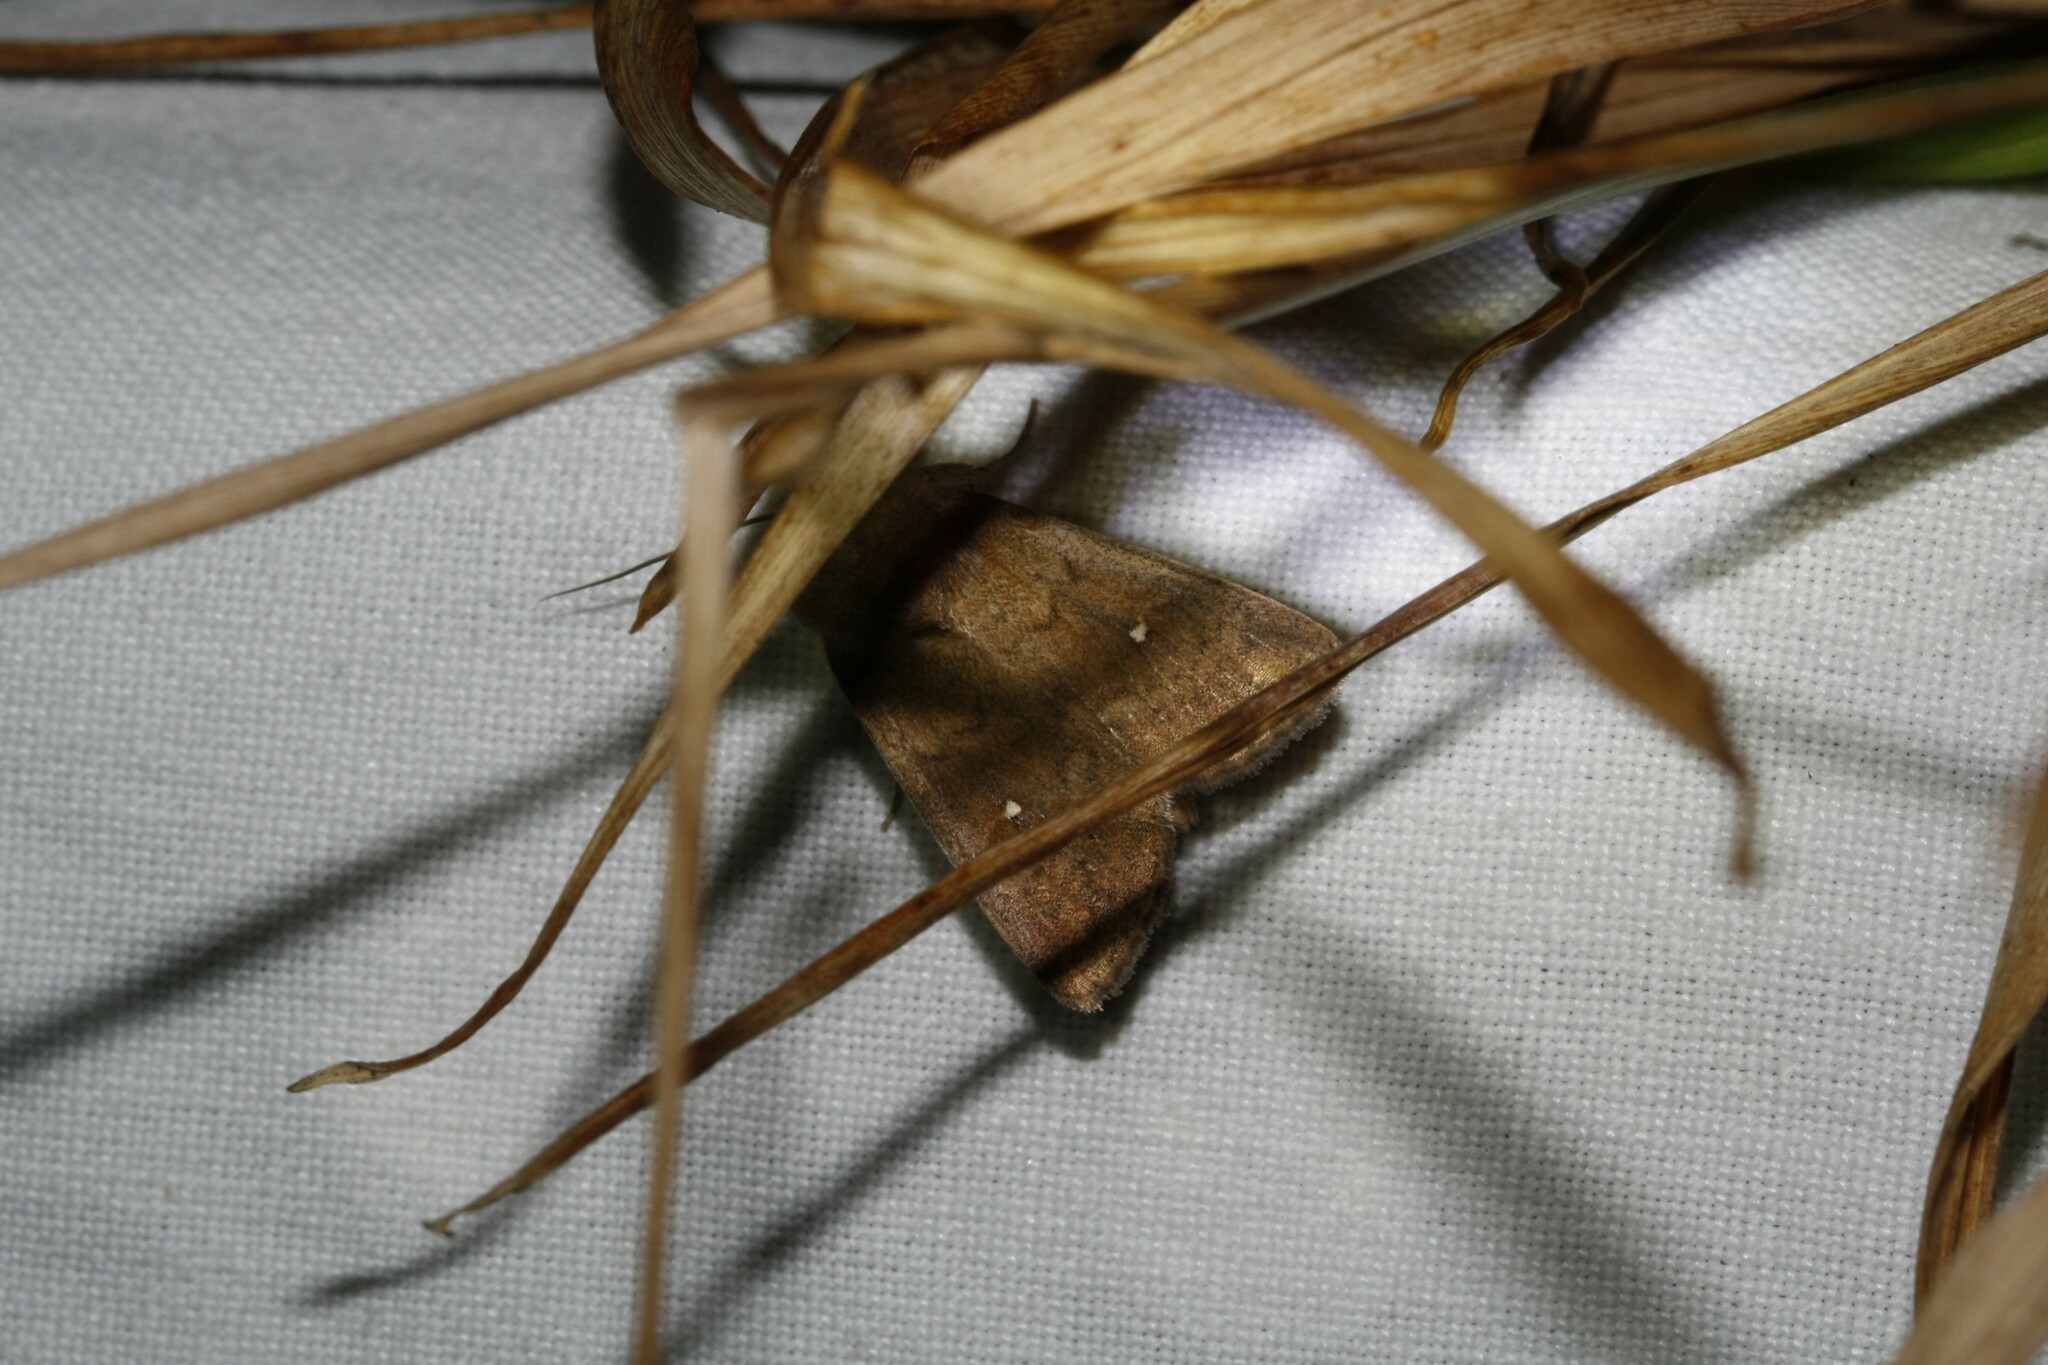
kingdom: Animalia
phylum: Arthropoda
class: Insecta
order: Lepidoptera
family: Noctuidae
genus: Mythimna
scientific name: Mythimna albipuncta
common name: White-point
